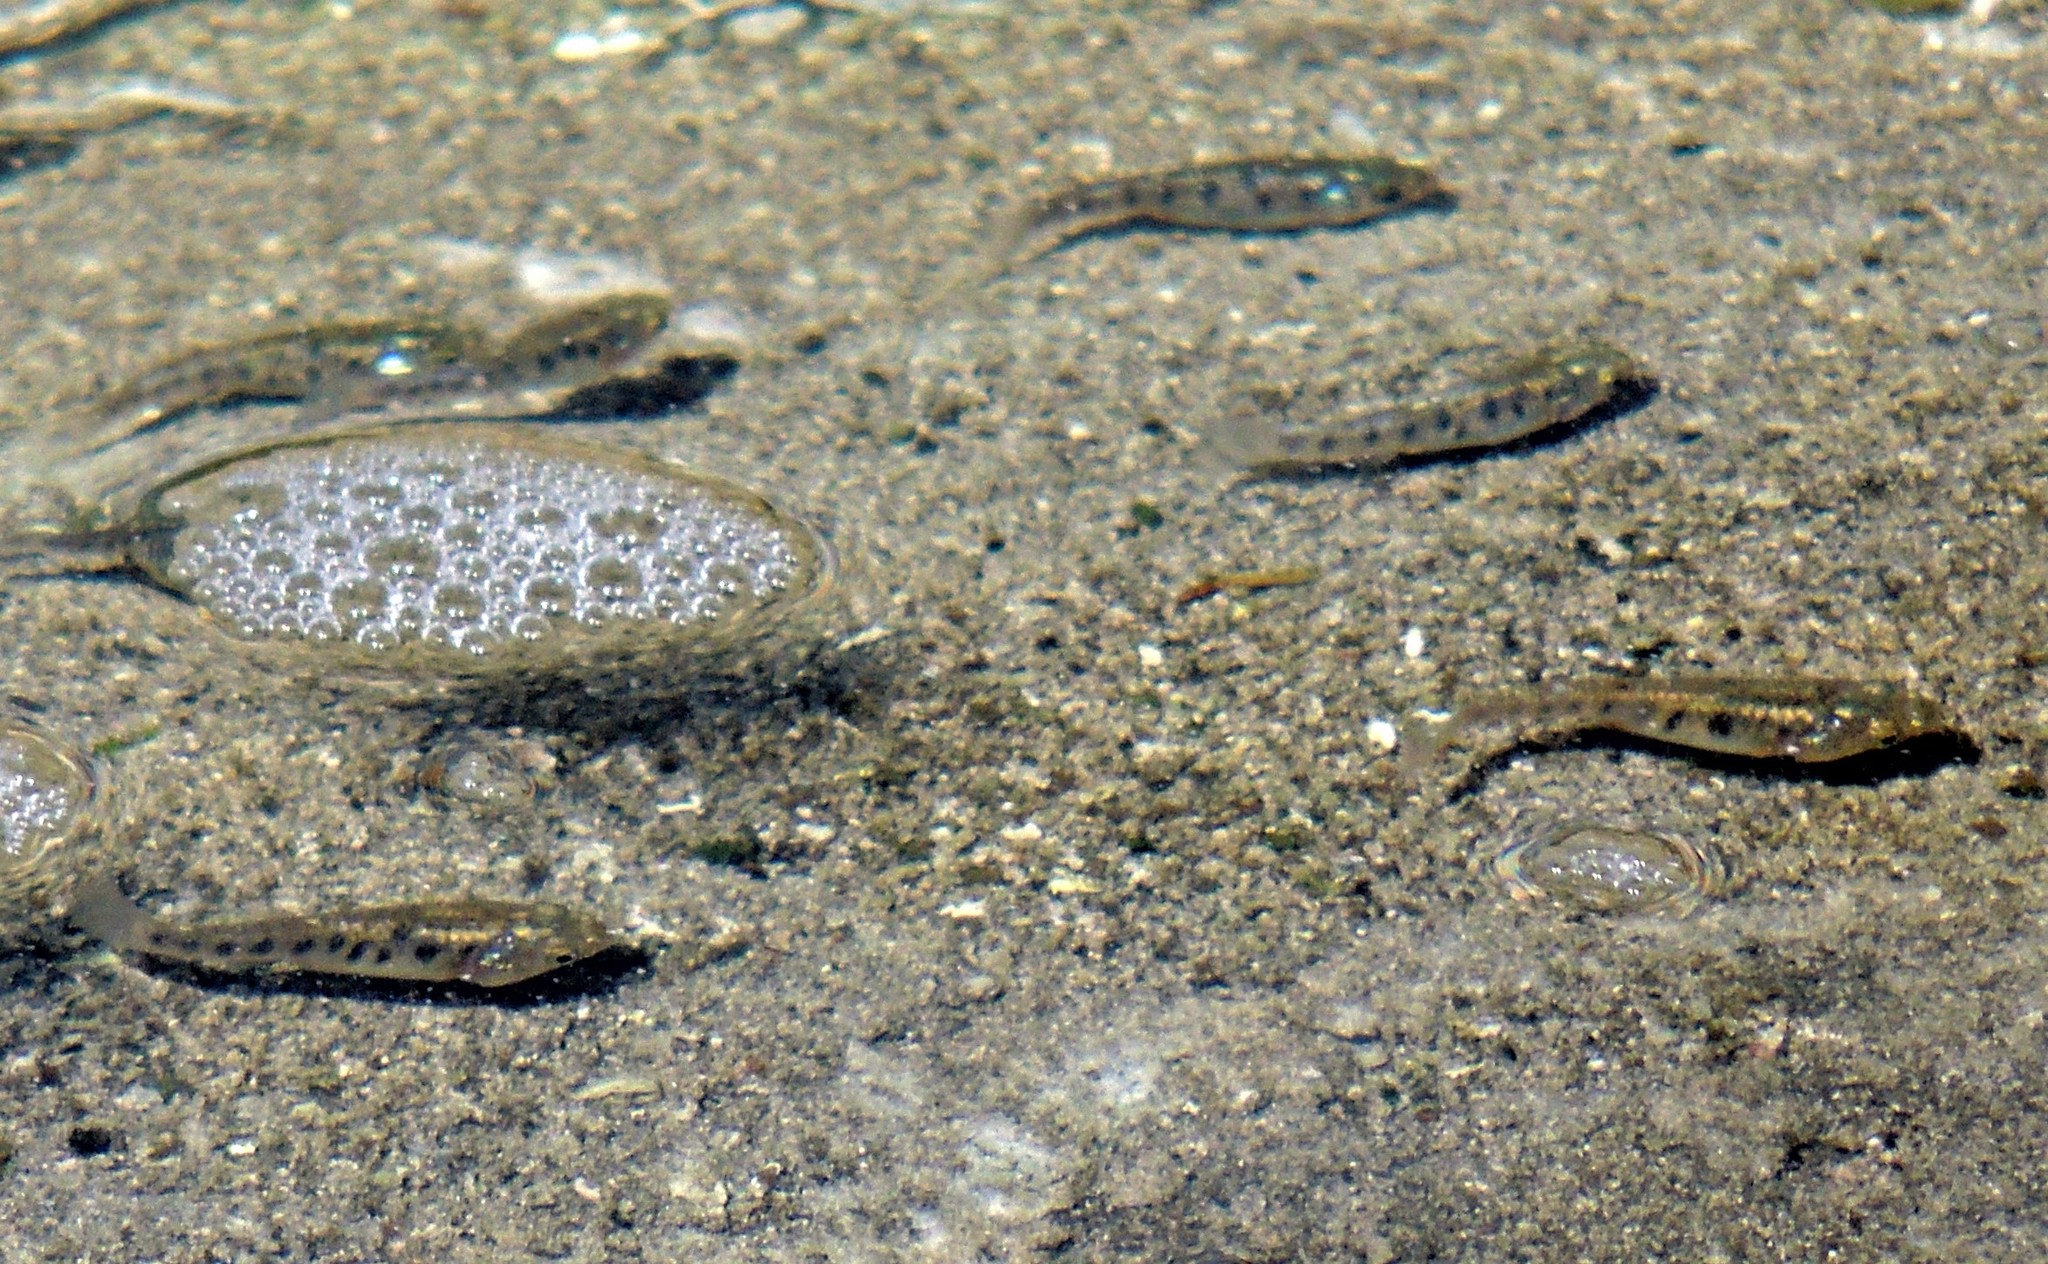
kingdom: Animalia
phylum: Chordata
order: Salmoniformes
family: Salmonidae
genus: Oncorhynchus
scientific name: Oncorhynchus mykiss
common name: Rainbow trout
